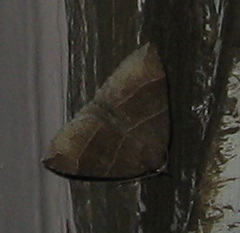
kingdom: Animalia
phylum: Arthropoda
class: Insecta
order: Lepidoptera
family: Erebidae
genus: Parallelia
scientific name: Parallelia bistriaris
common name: Maple looper moth
